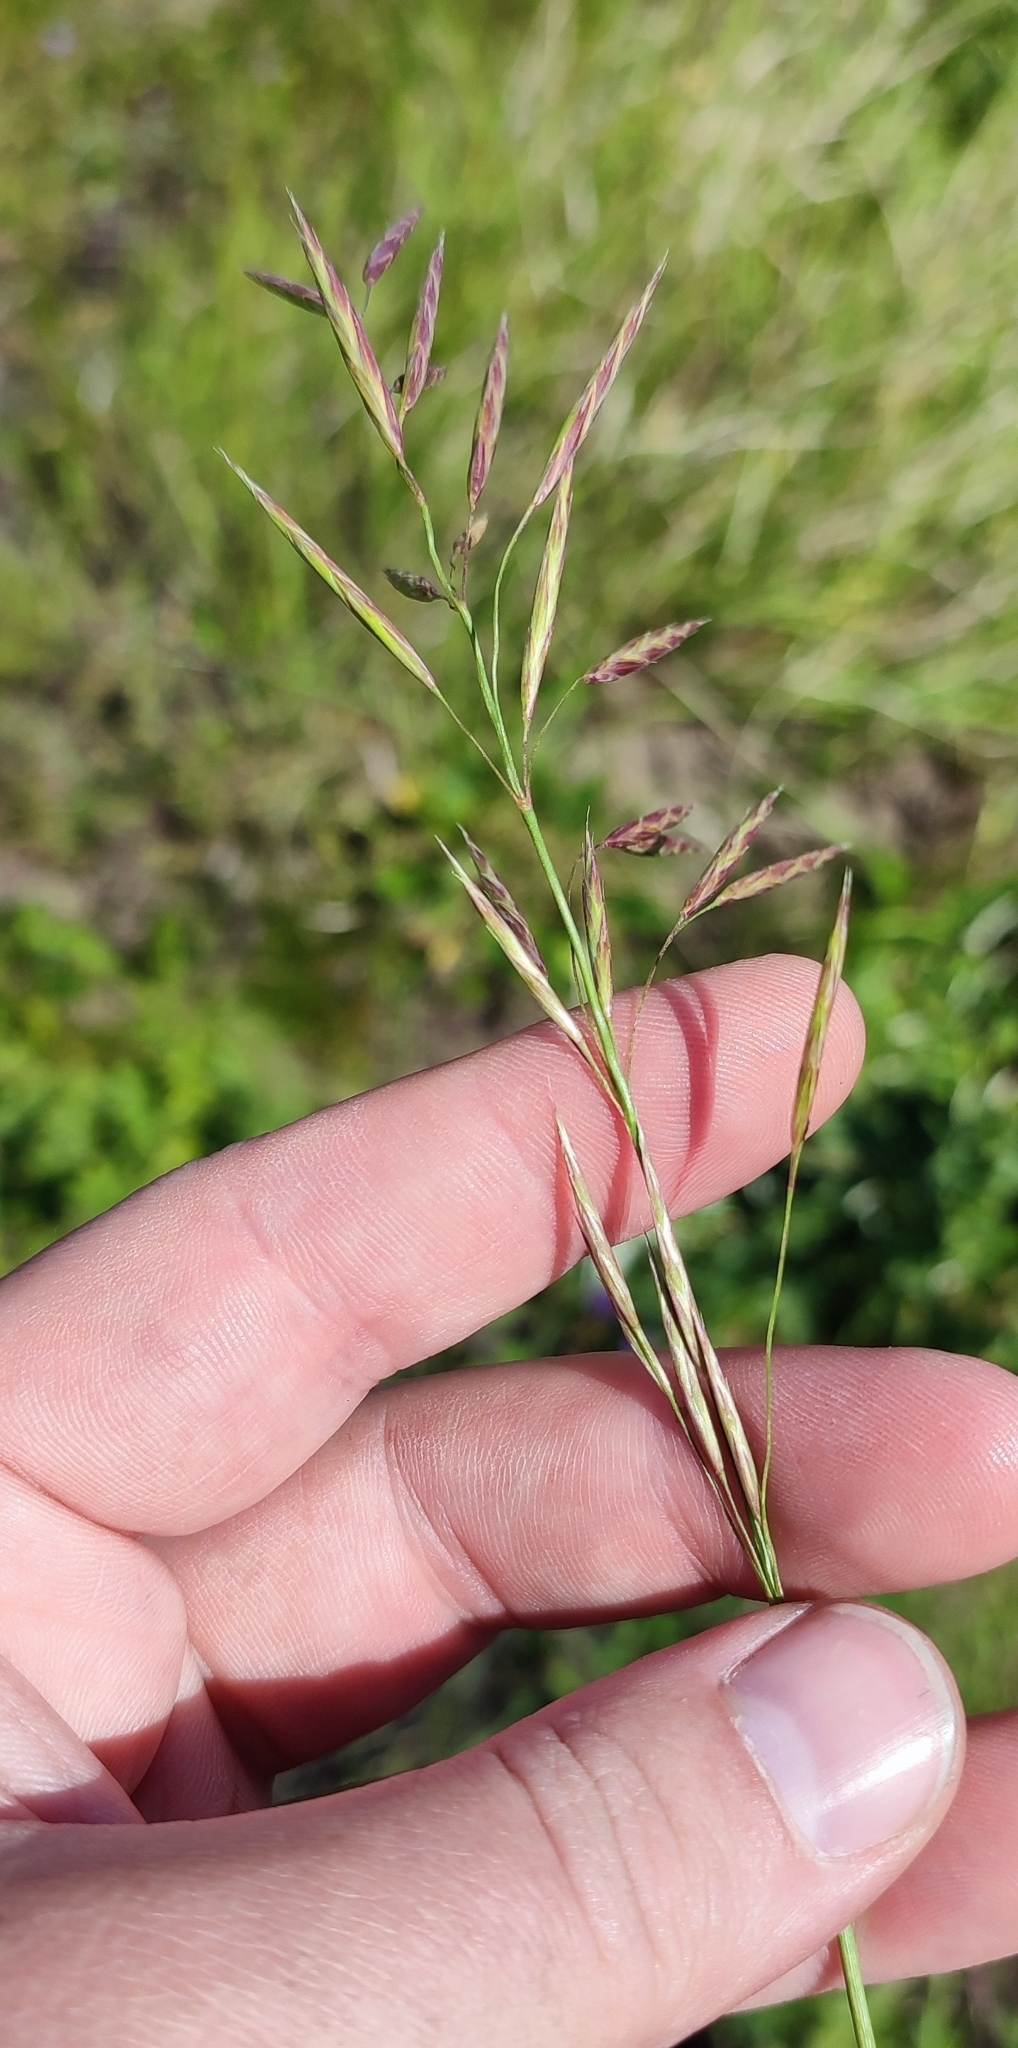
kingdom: Plantae
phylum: Tracheophyta
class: Liliopsida
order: Poales
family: Poaceae
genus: Bromus
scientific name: Bromus inermis
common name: Smooth brome
